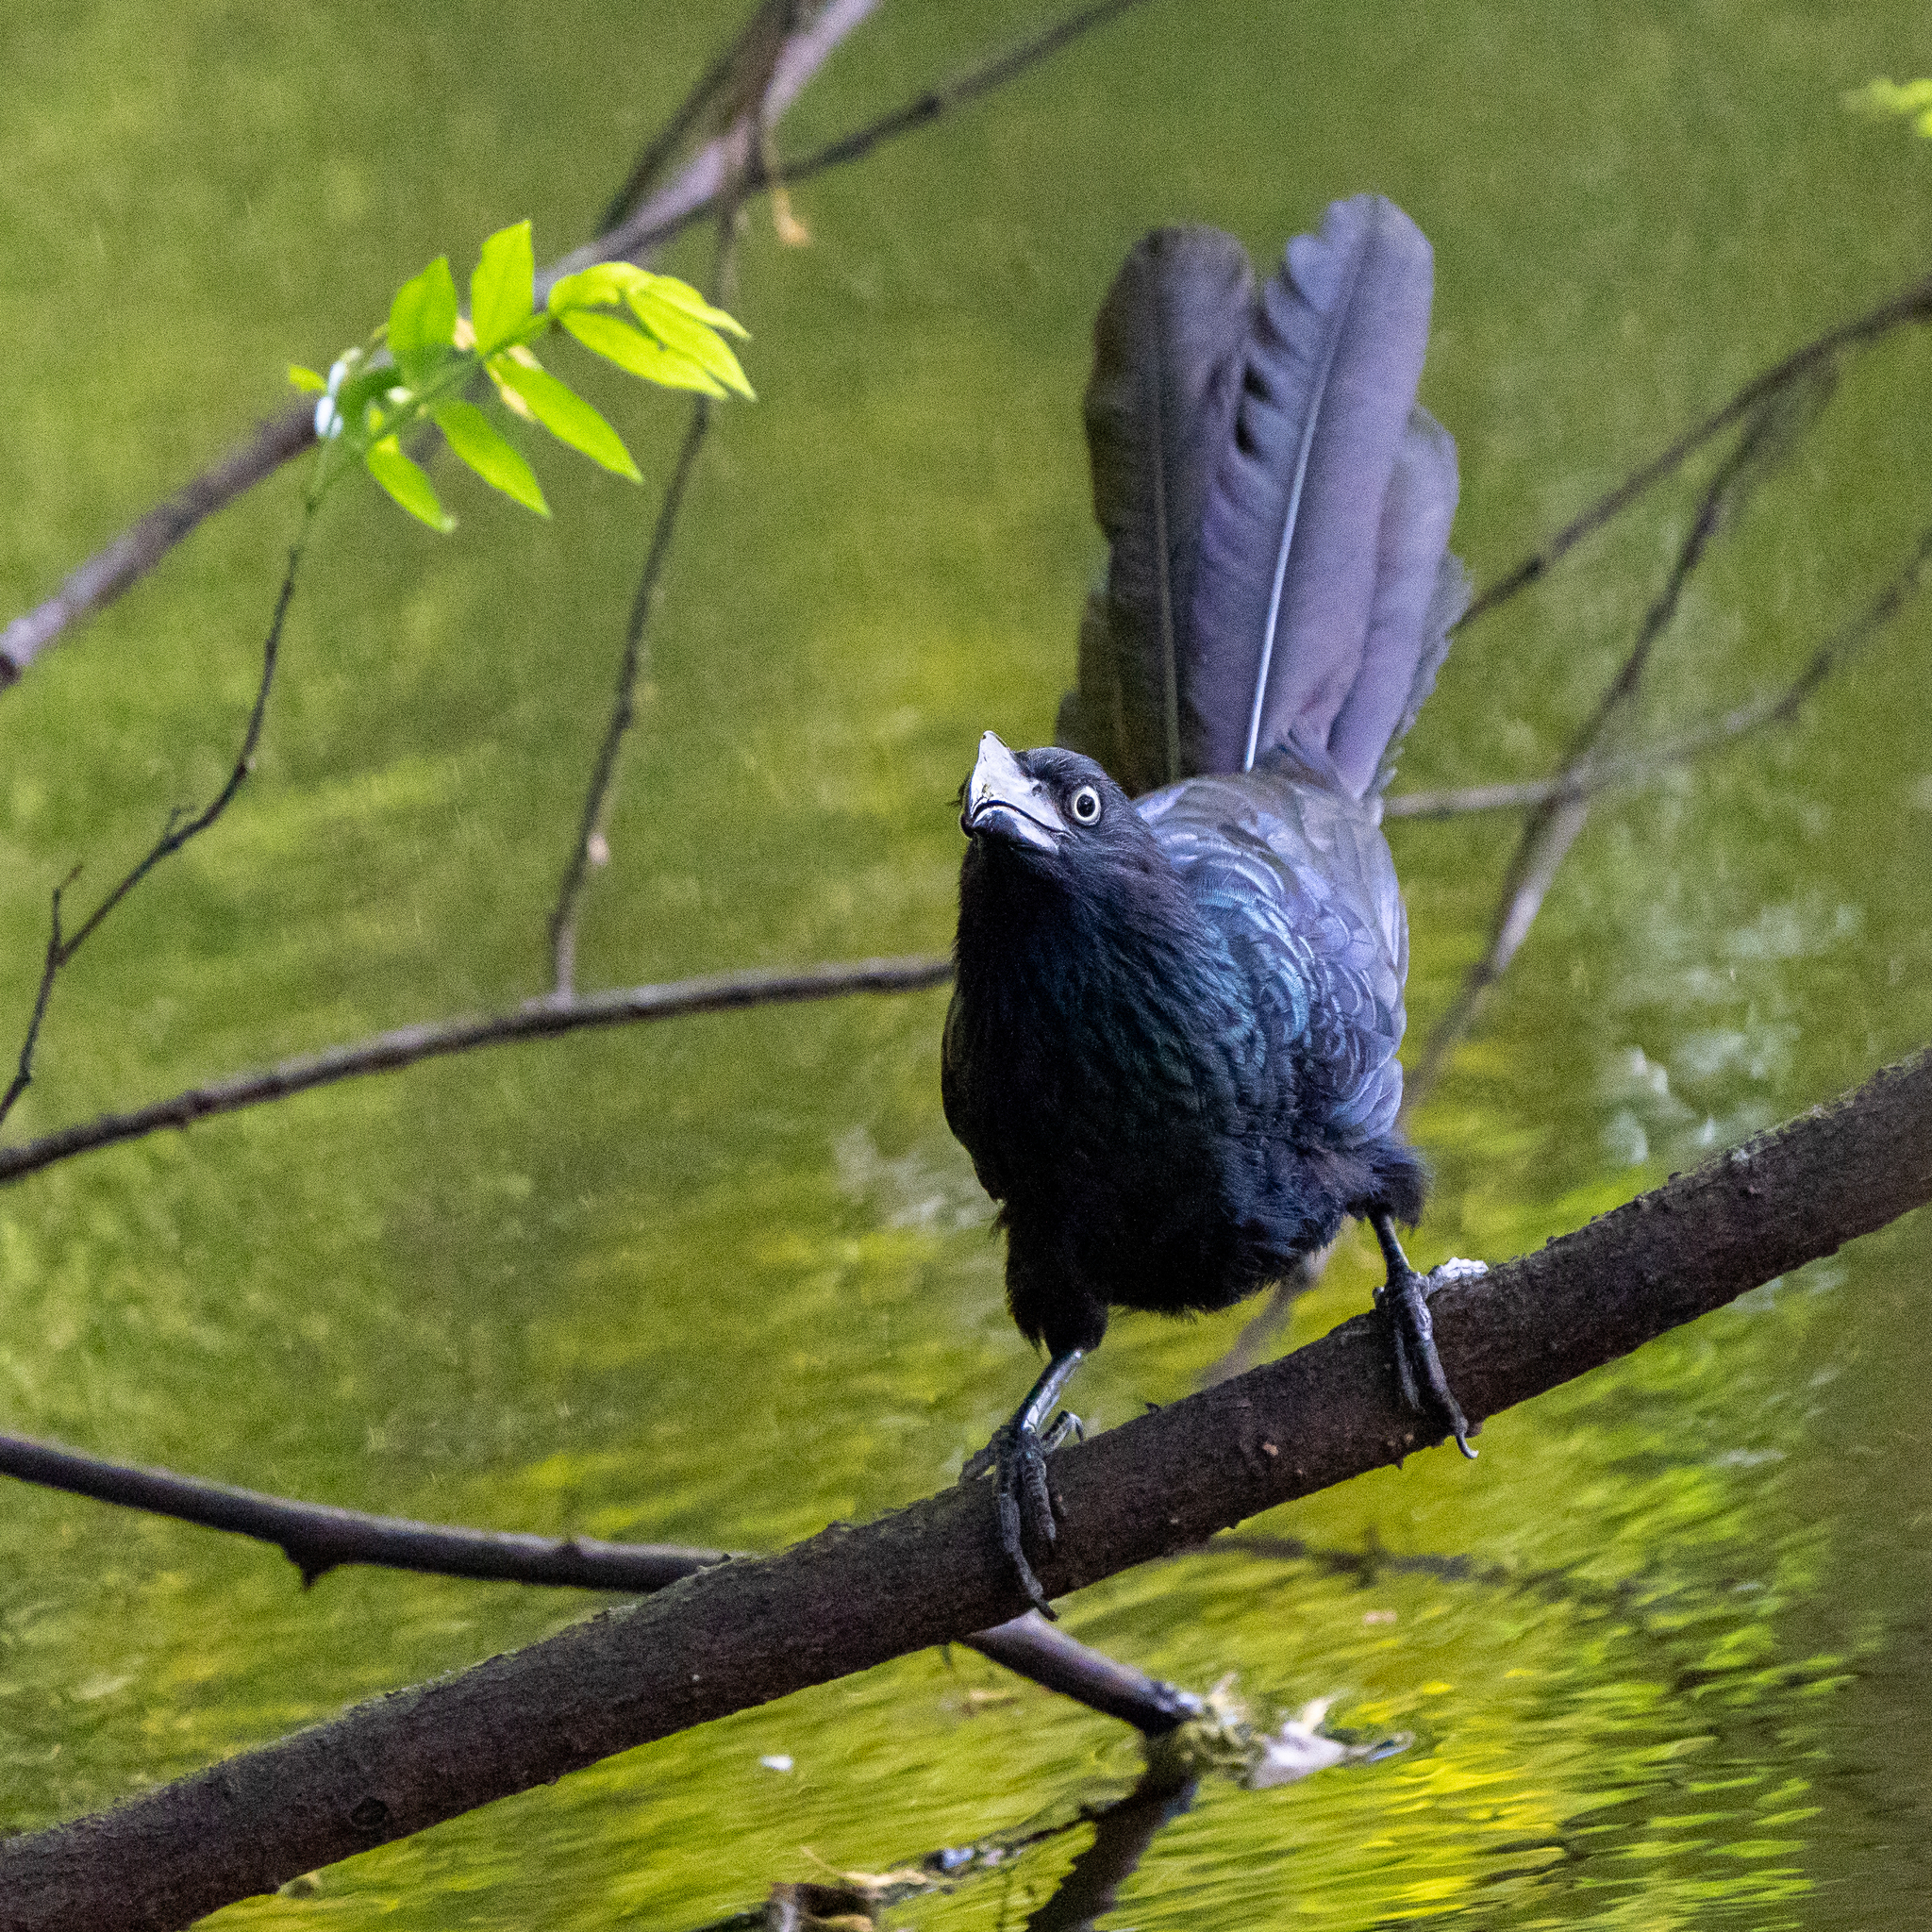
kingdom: Animalia
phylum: Chordata
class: Aves
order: Cuculiformes
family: Cuculidae
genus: Crotophaga
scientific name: Crotophaga major
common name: Greater ani
